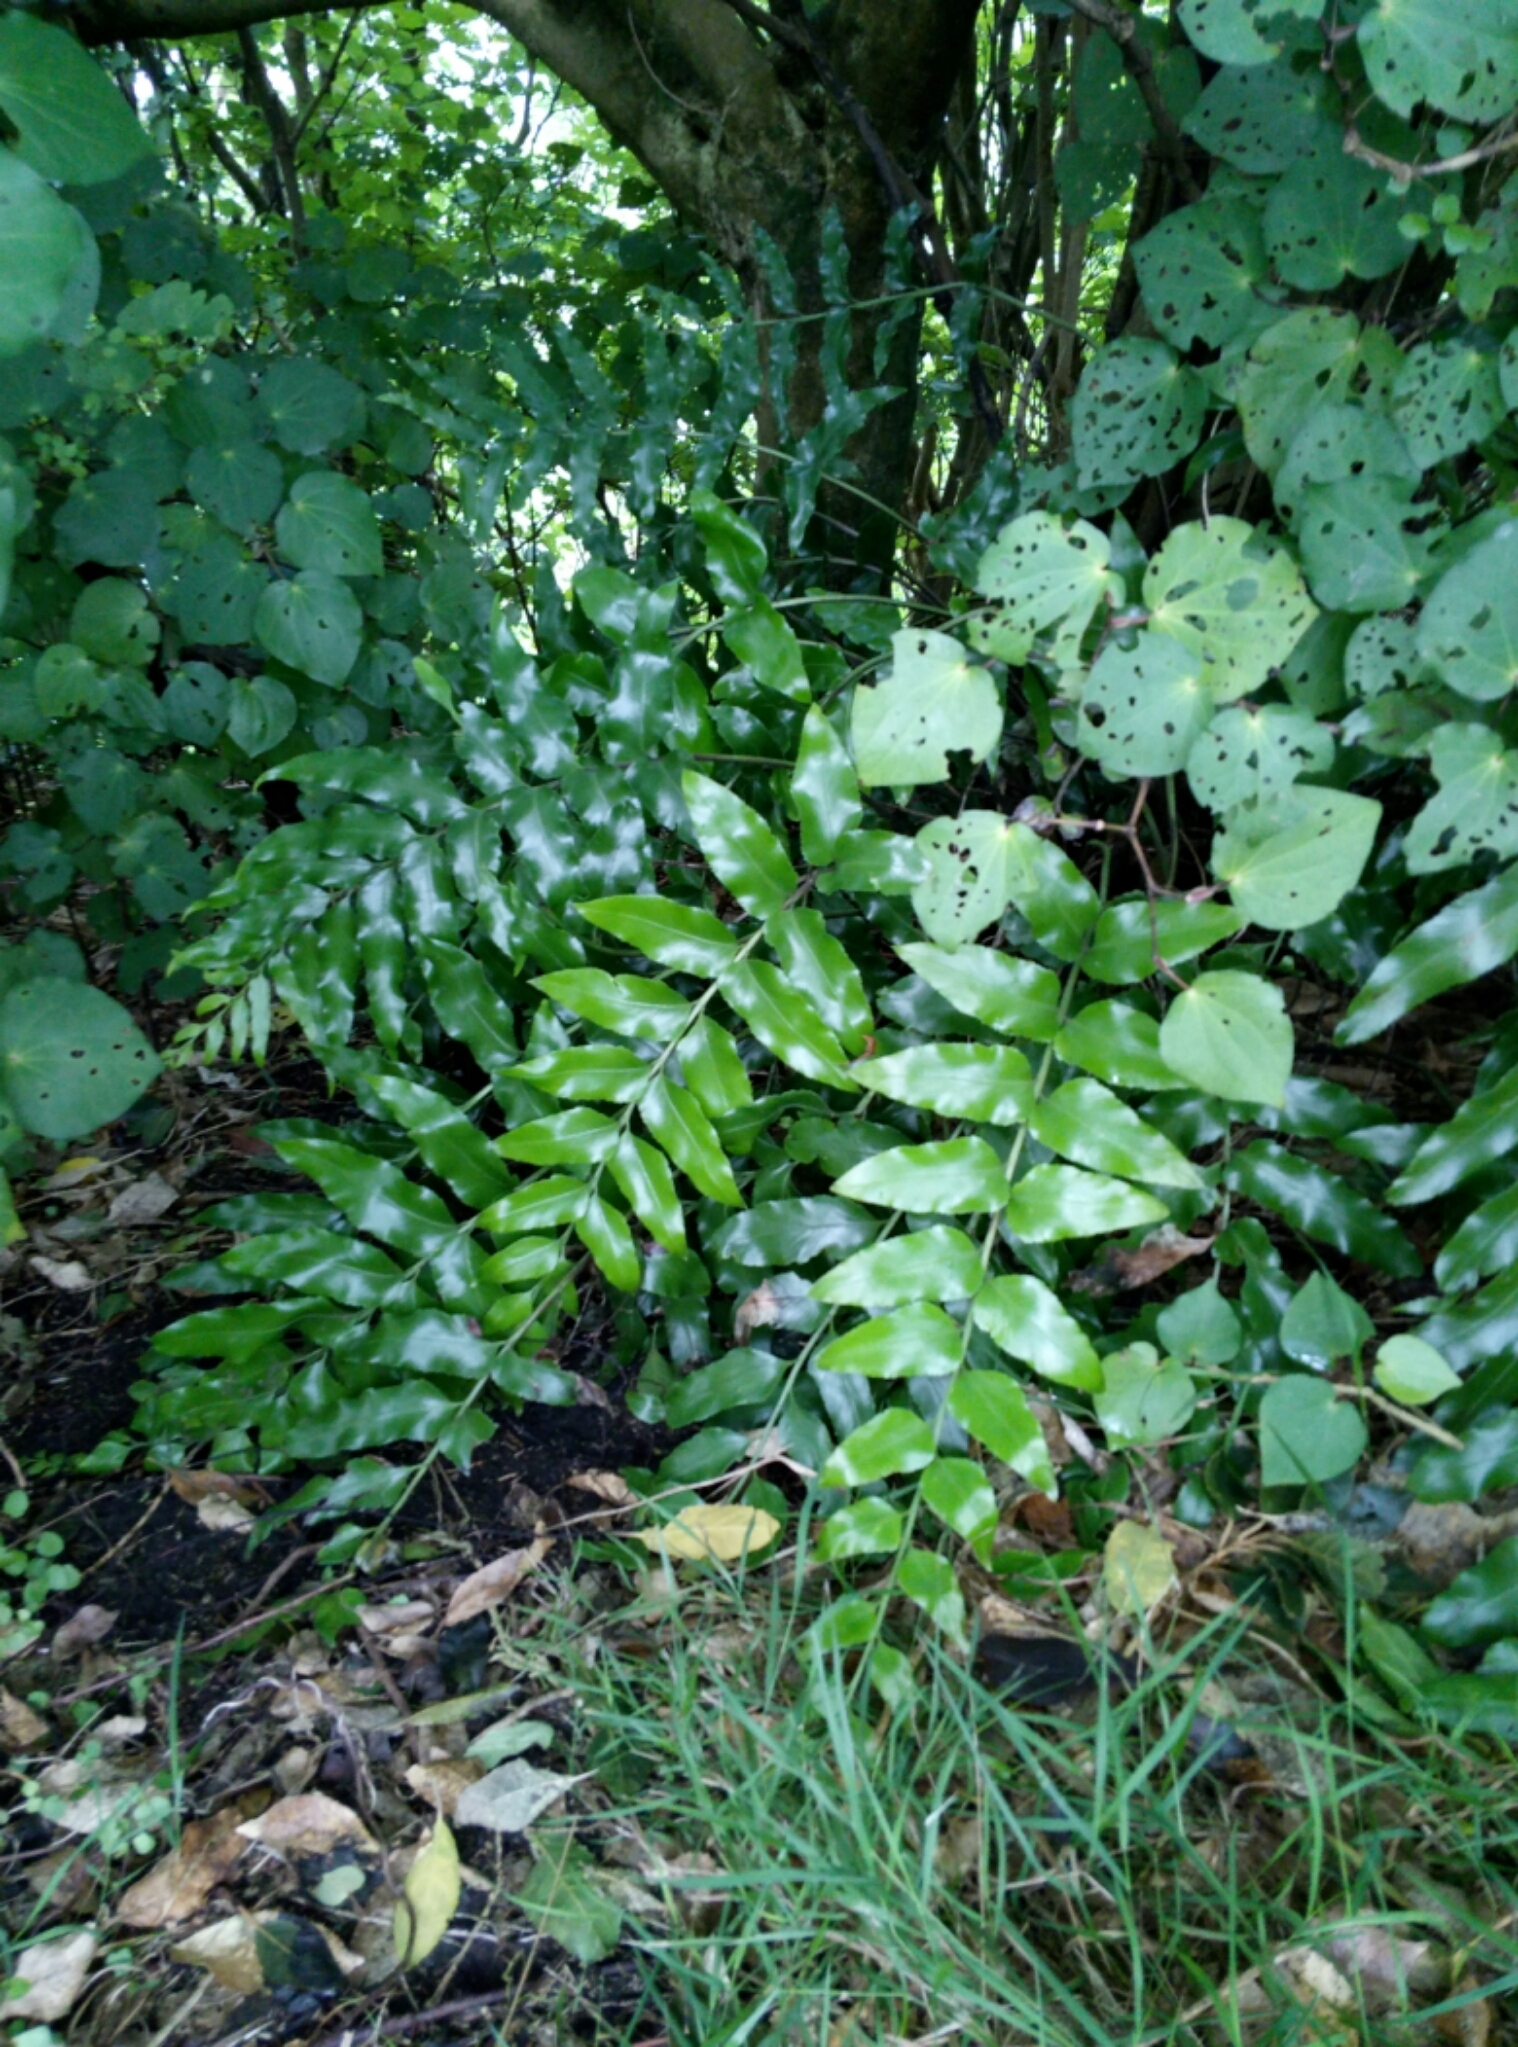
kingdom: Plantae
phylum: Tracheophyta
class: Polypodiopsida
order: Polypodiales
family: Aspleniaceae
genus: Asplenium
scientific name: Asplenium oblongifolium
